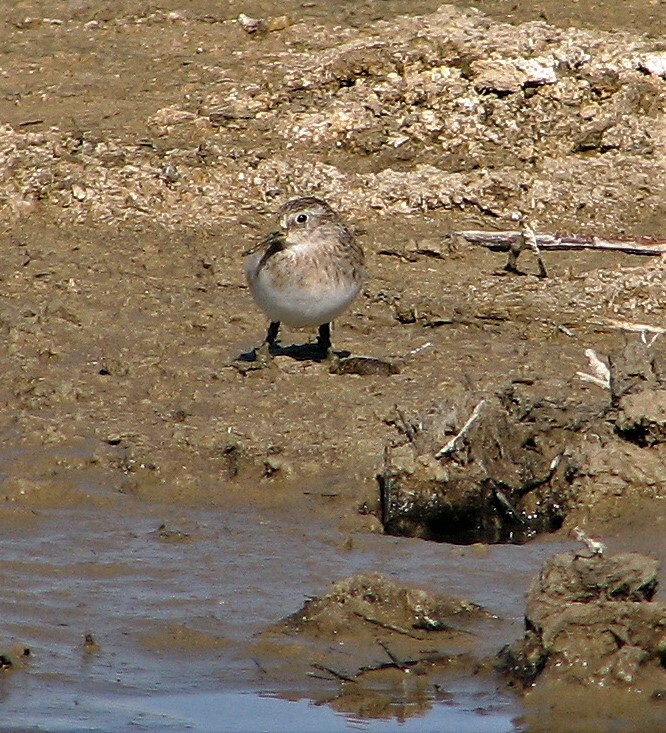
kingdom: Animalia
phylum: Chordata
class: Aves
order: Charadriiformes
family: Scolopacidae
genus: Calidris
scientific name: Calidris bairdii
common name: Baird's sandpiper
